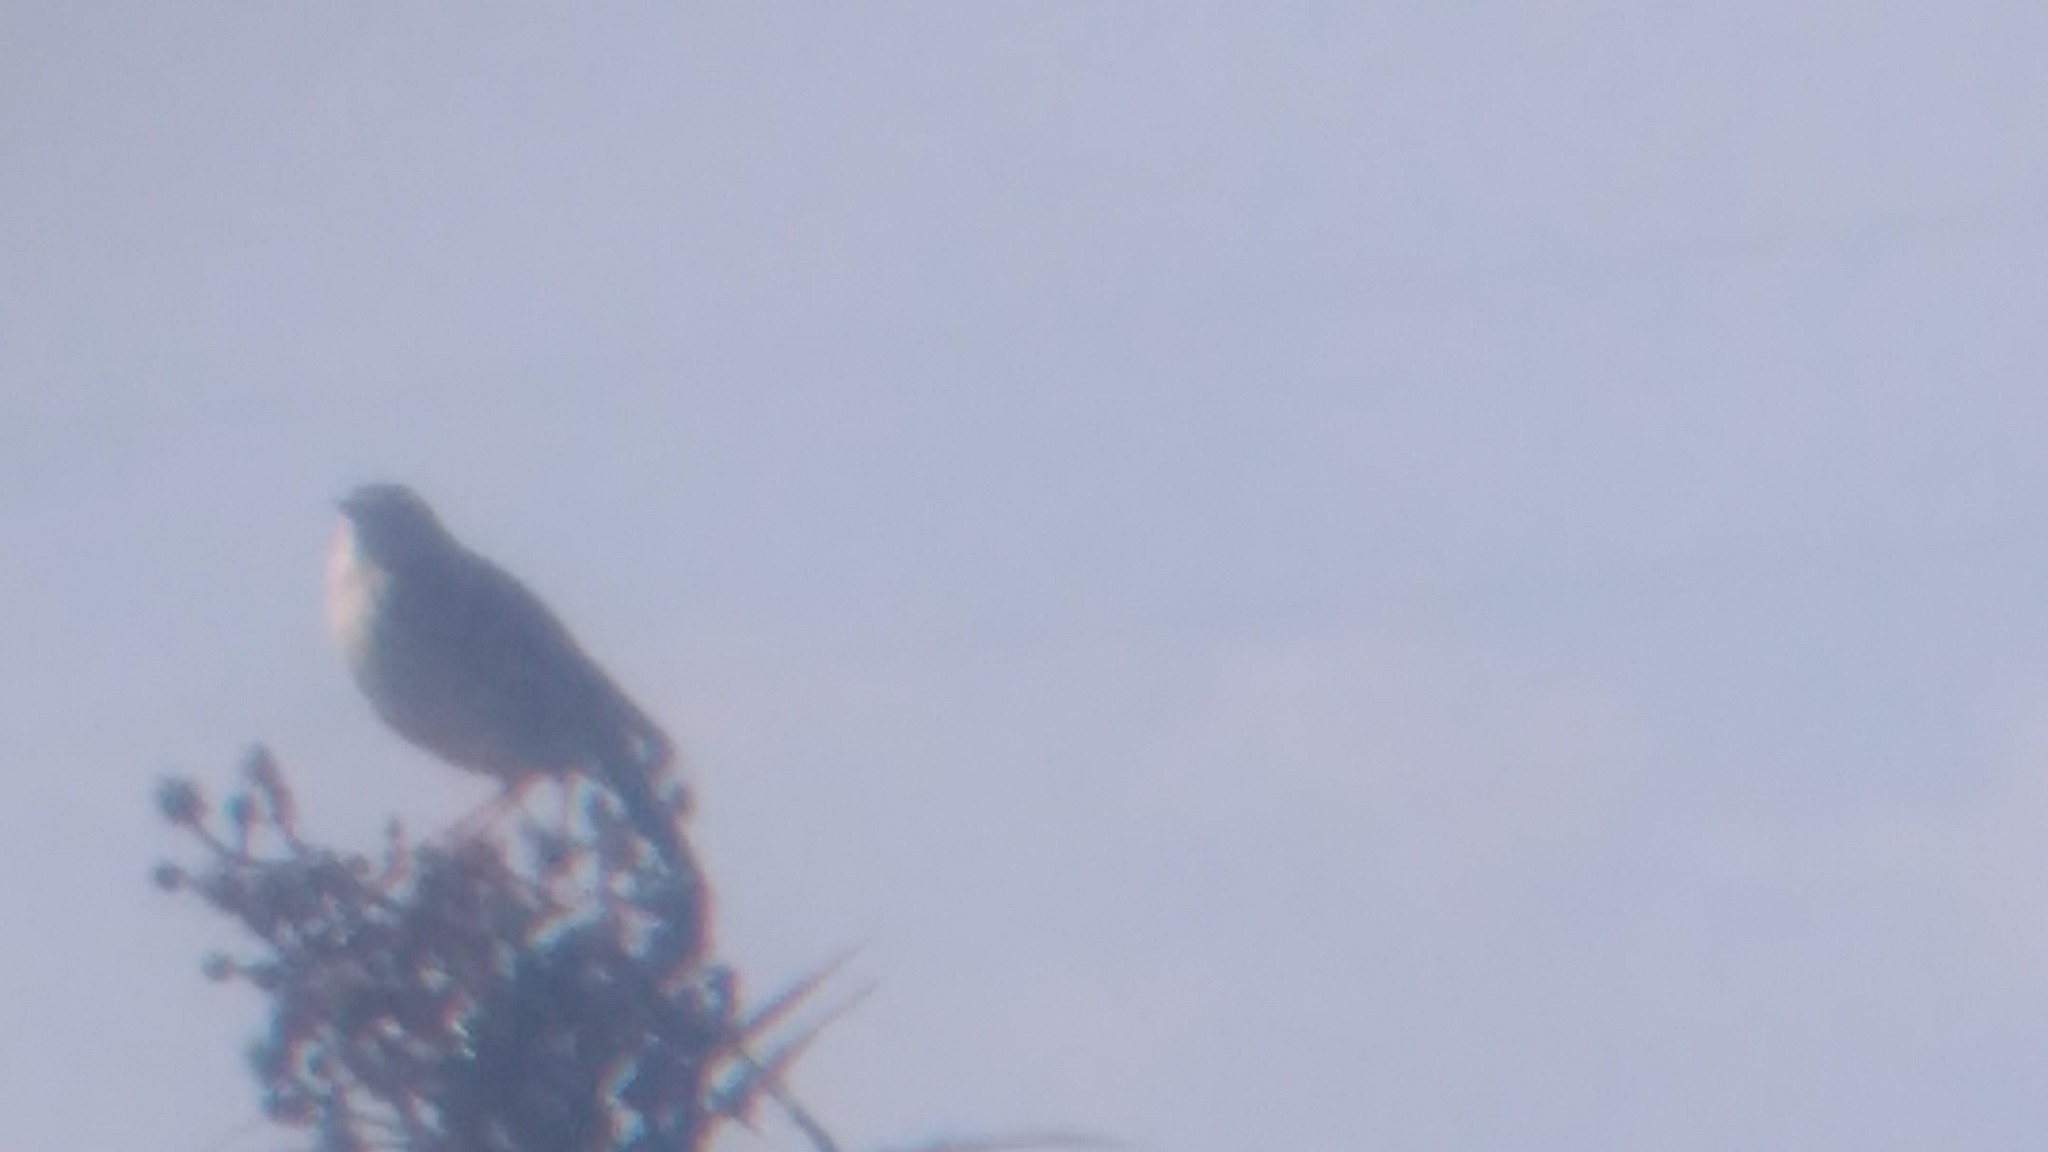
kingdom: Animalia
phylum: Chordata
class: Aves
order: Passeriformes
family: Motacillidae
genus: Anthus
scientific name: Anthus hellmayri
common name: Hellmayr's pipit
